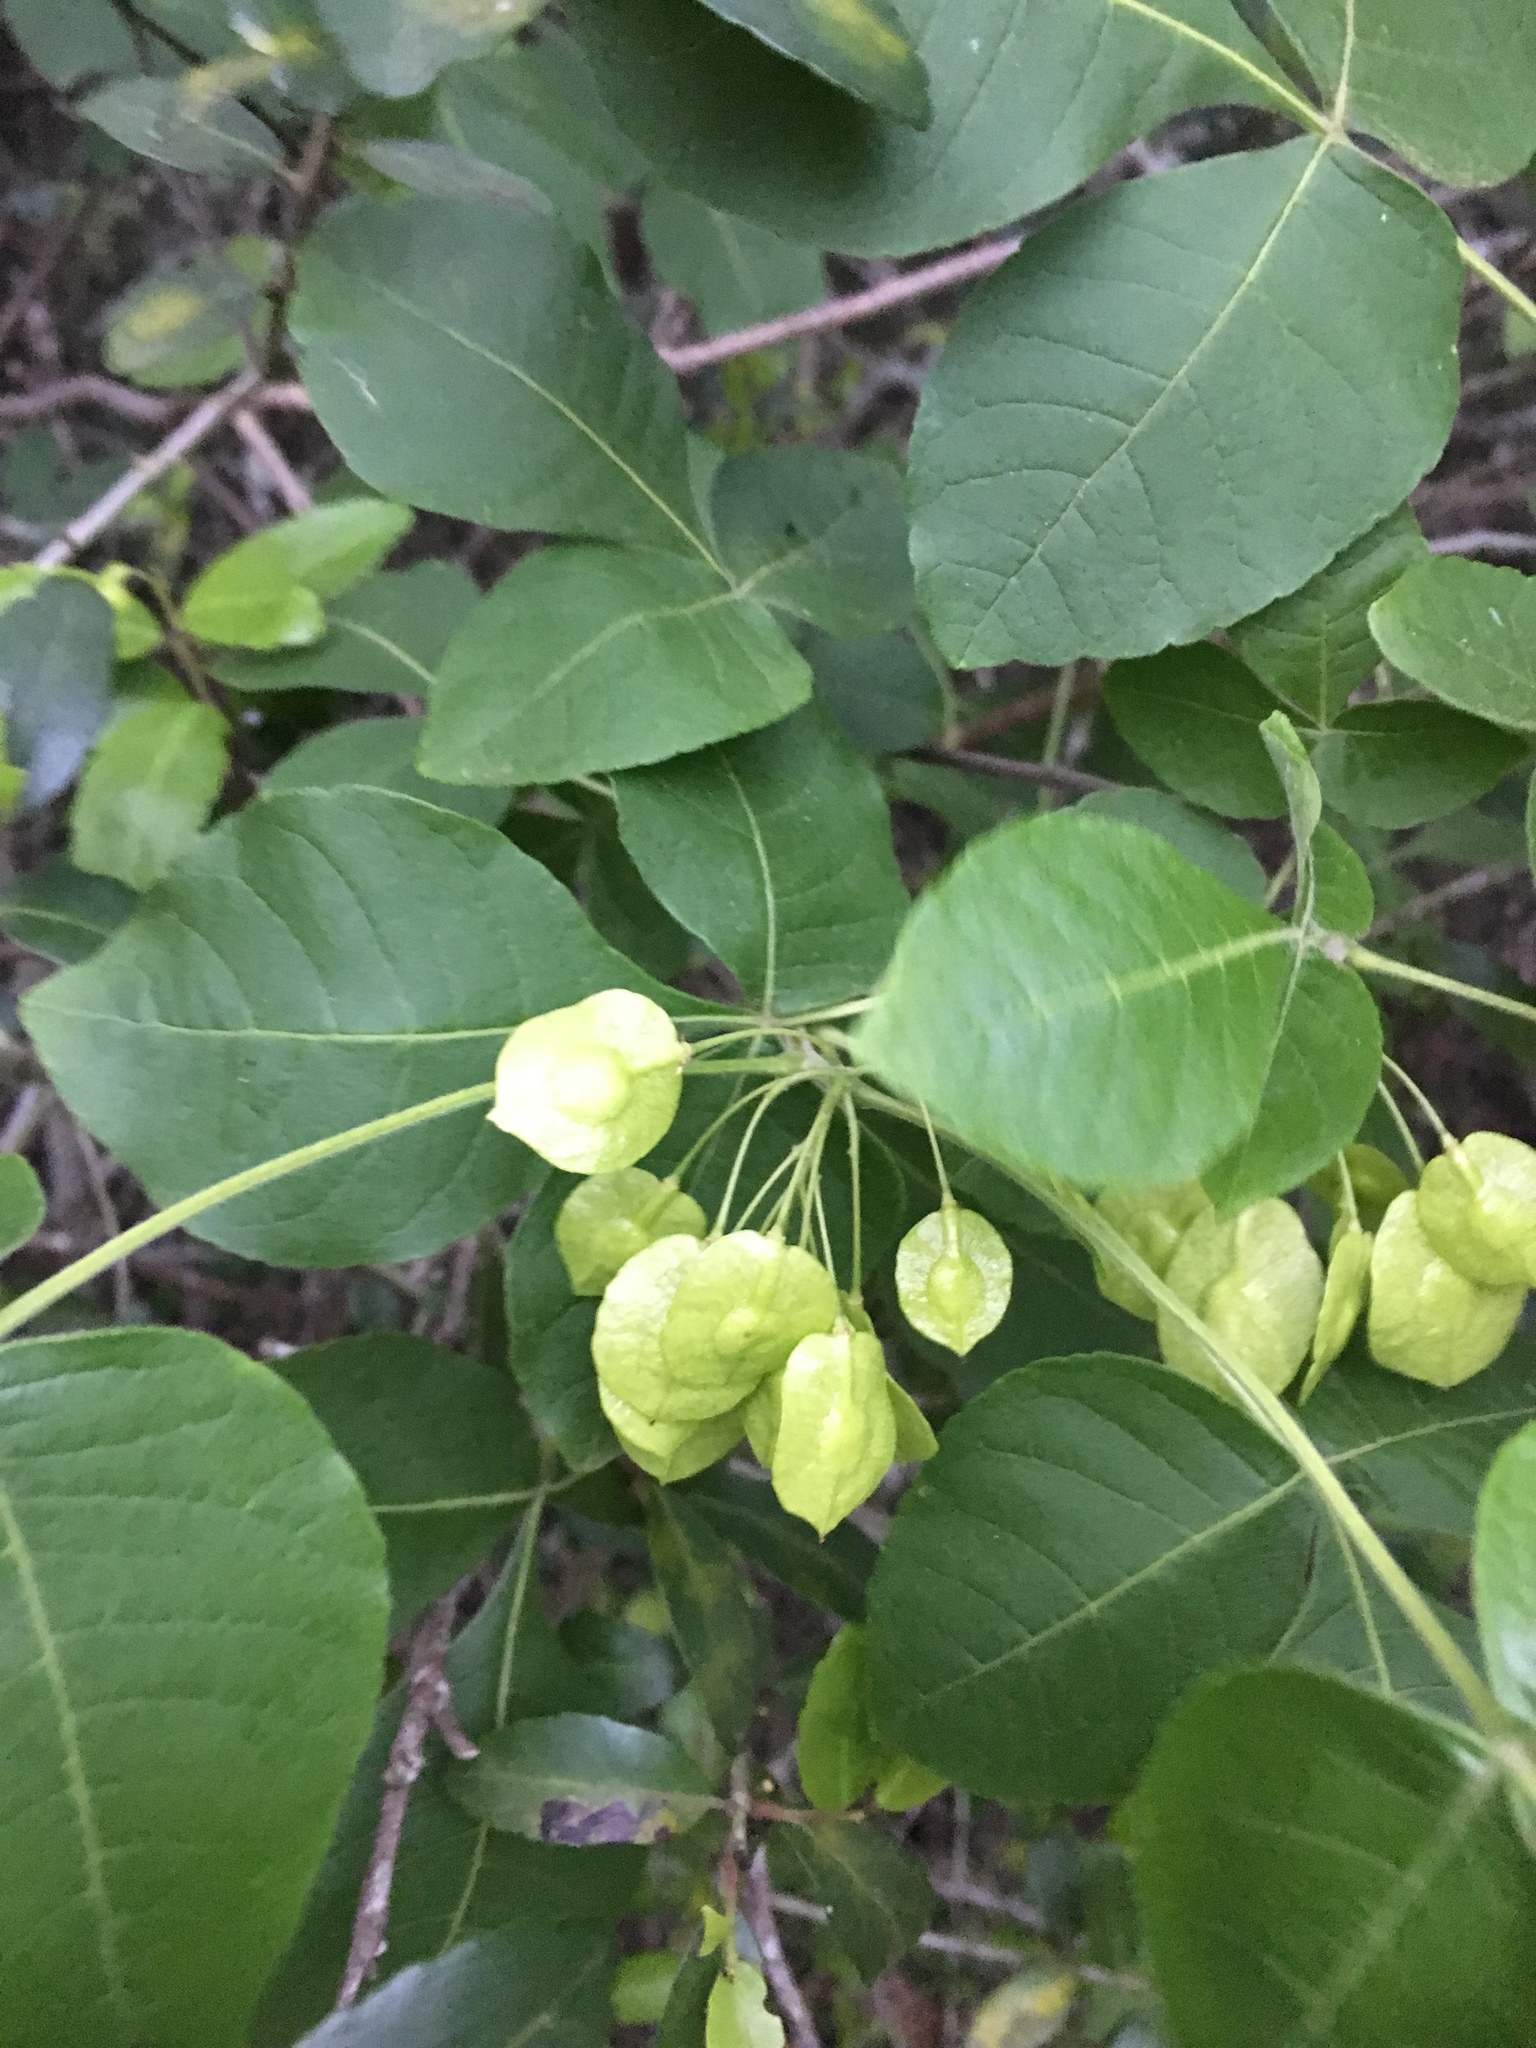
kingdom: Plantae
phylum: Tracheophyta
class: Magnoliopsida
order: Sapindales
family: Rutaceae
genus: Ptelea
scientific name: Ptelea trifoliata
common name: Common hop-tree
